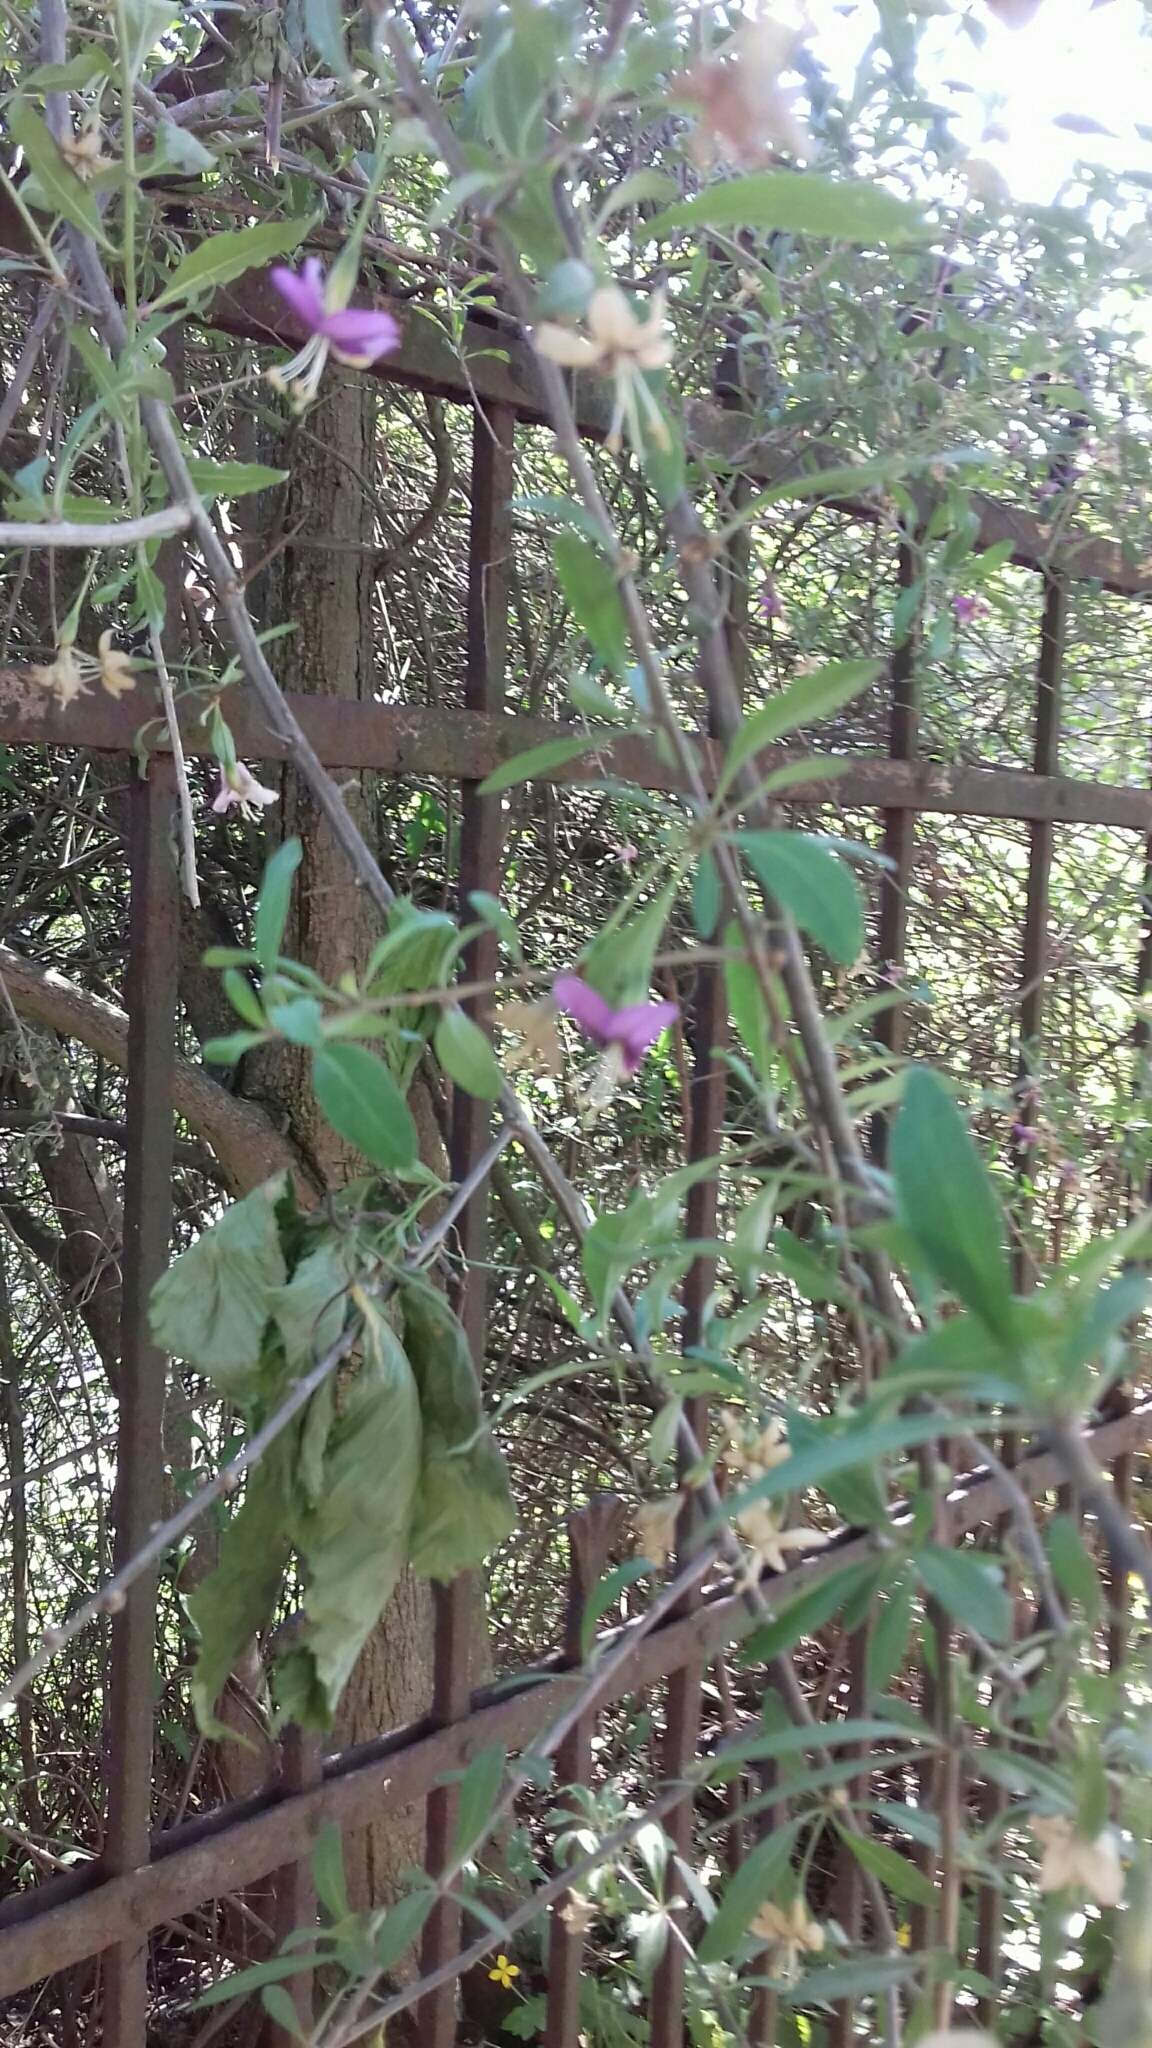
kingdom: Plantae
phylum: Tracheophyta
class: Magnoliopsida
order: Solanales
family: Solanaceae
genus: Lycium
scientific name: Lycium barbarum
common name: Duke of argyll's teaplant
